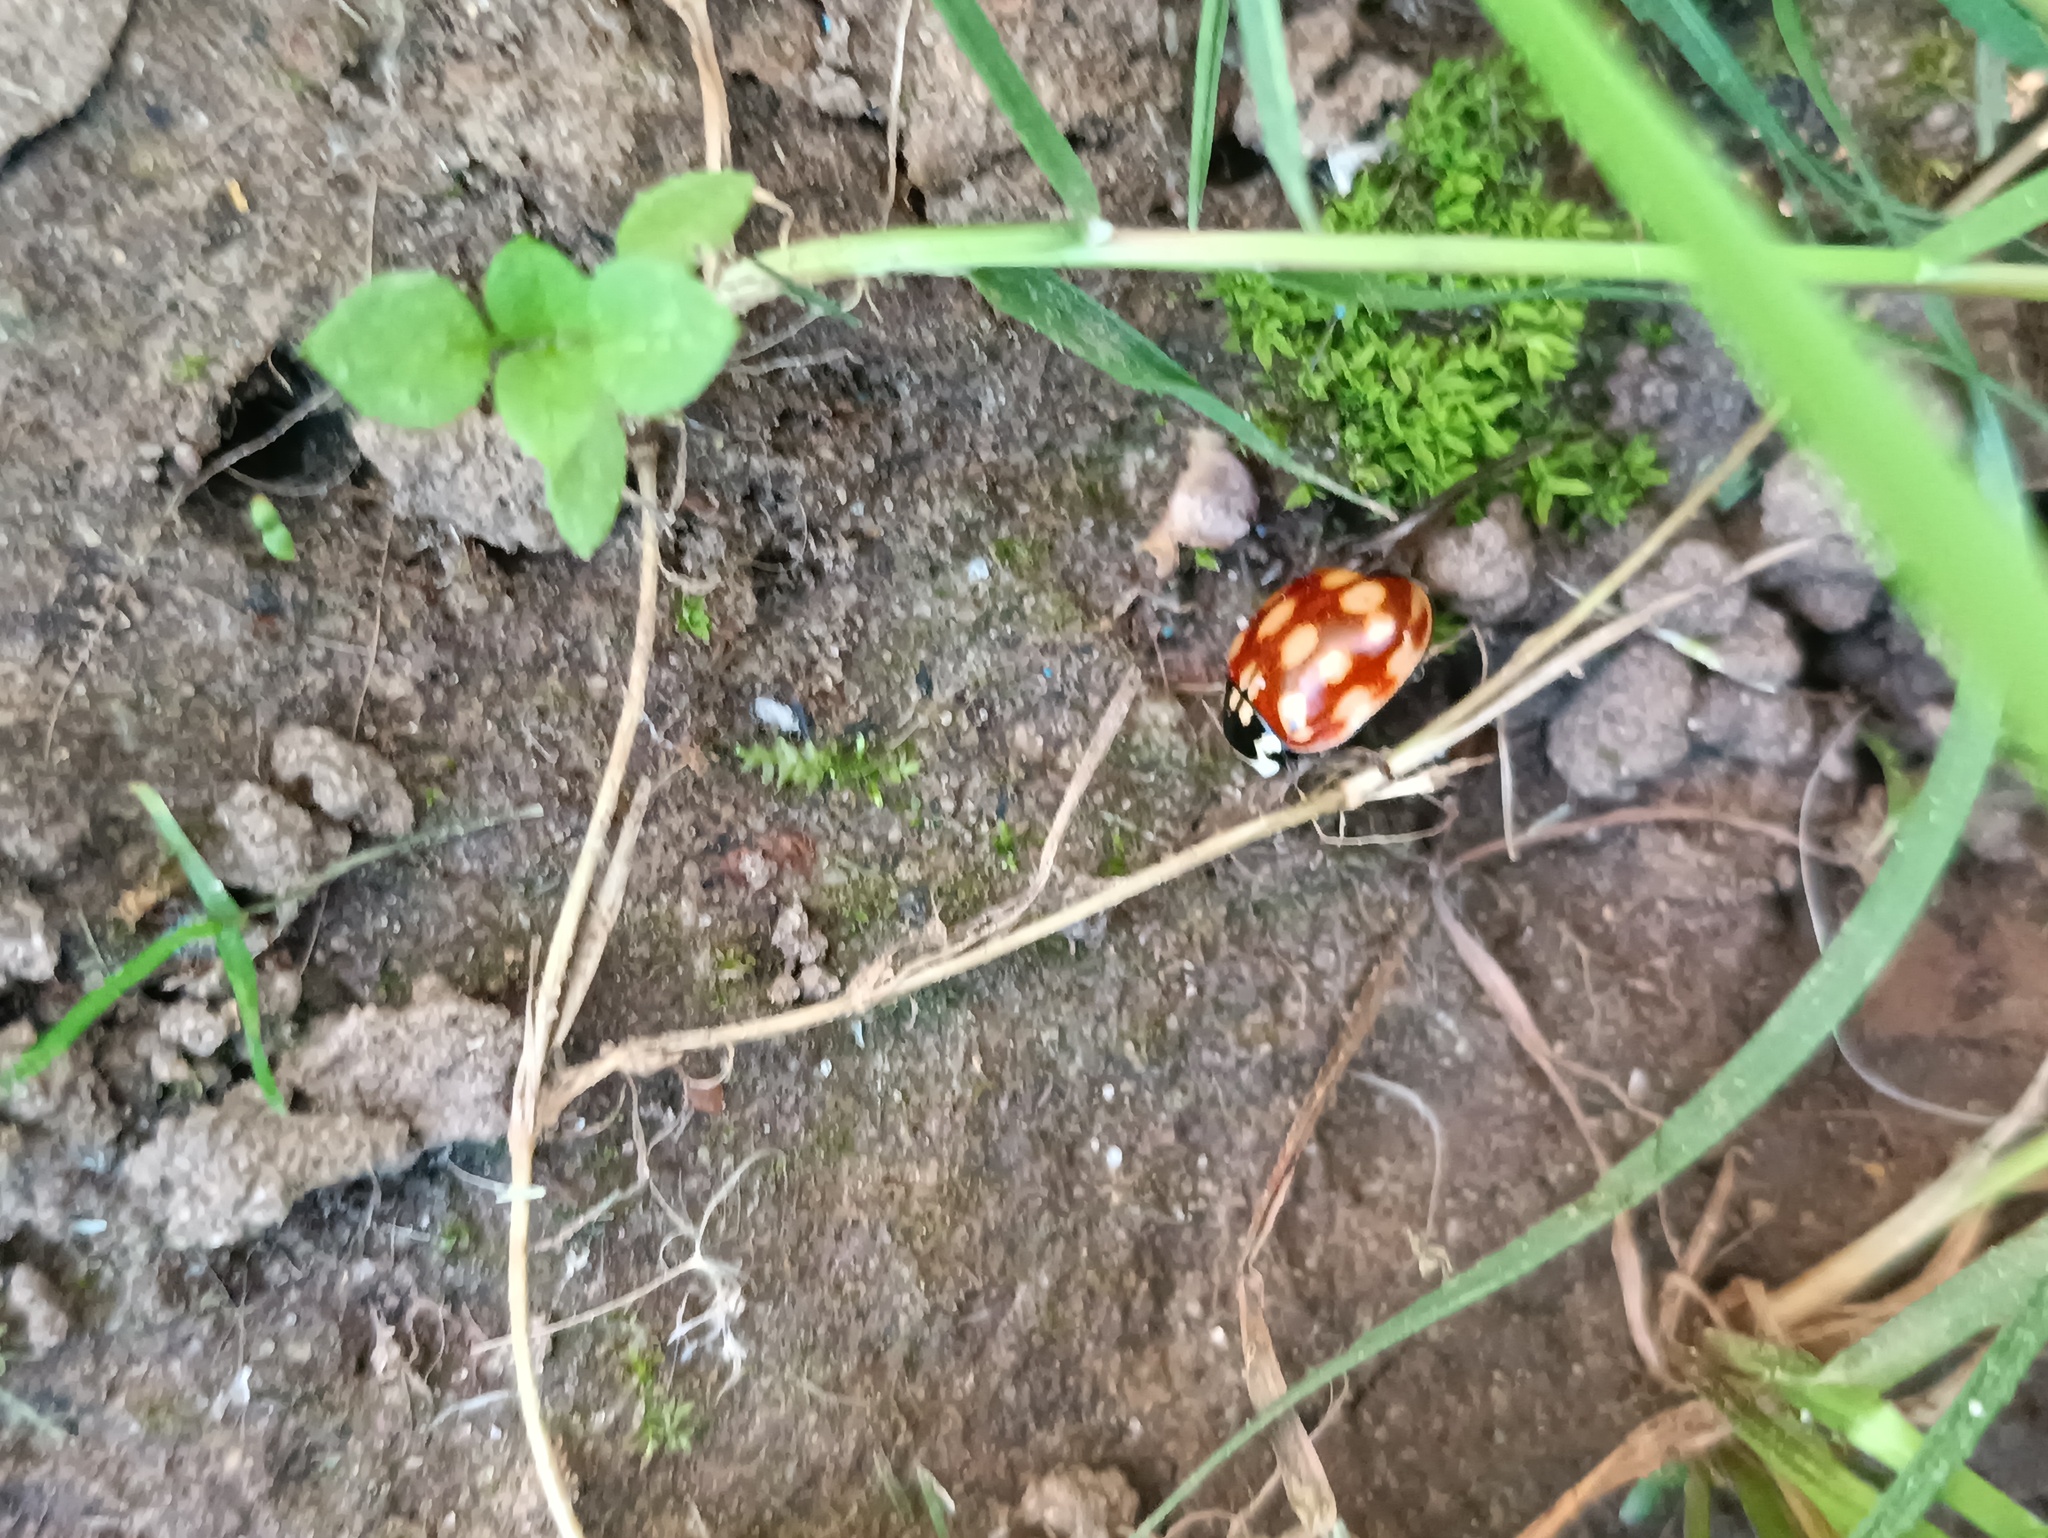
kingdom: Animalia
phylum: Arthropoda
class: Insecta
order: Coleoptera
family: Coccinellidae
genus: Anatis
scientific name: Anatis ocellata
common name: Eyed ladybird
